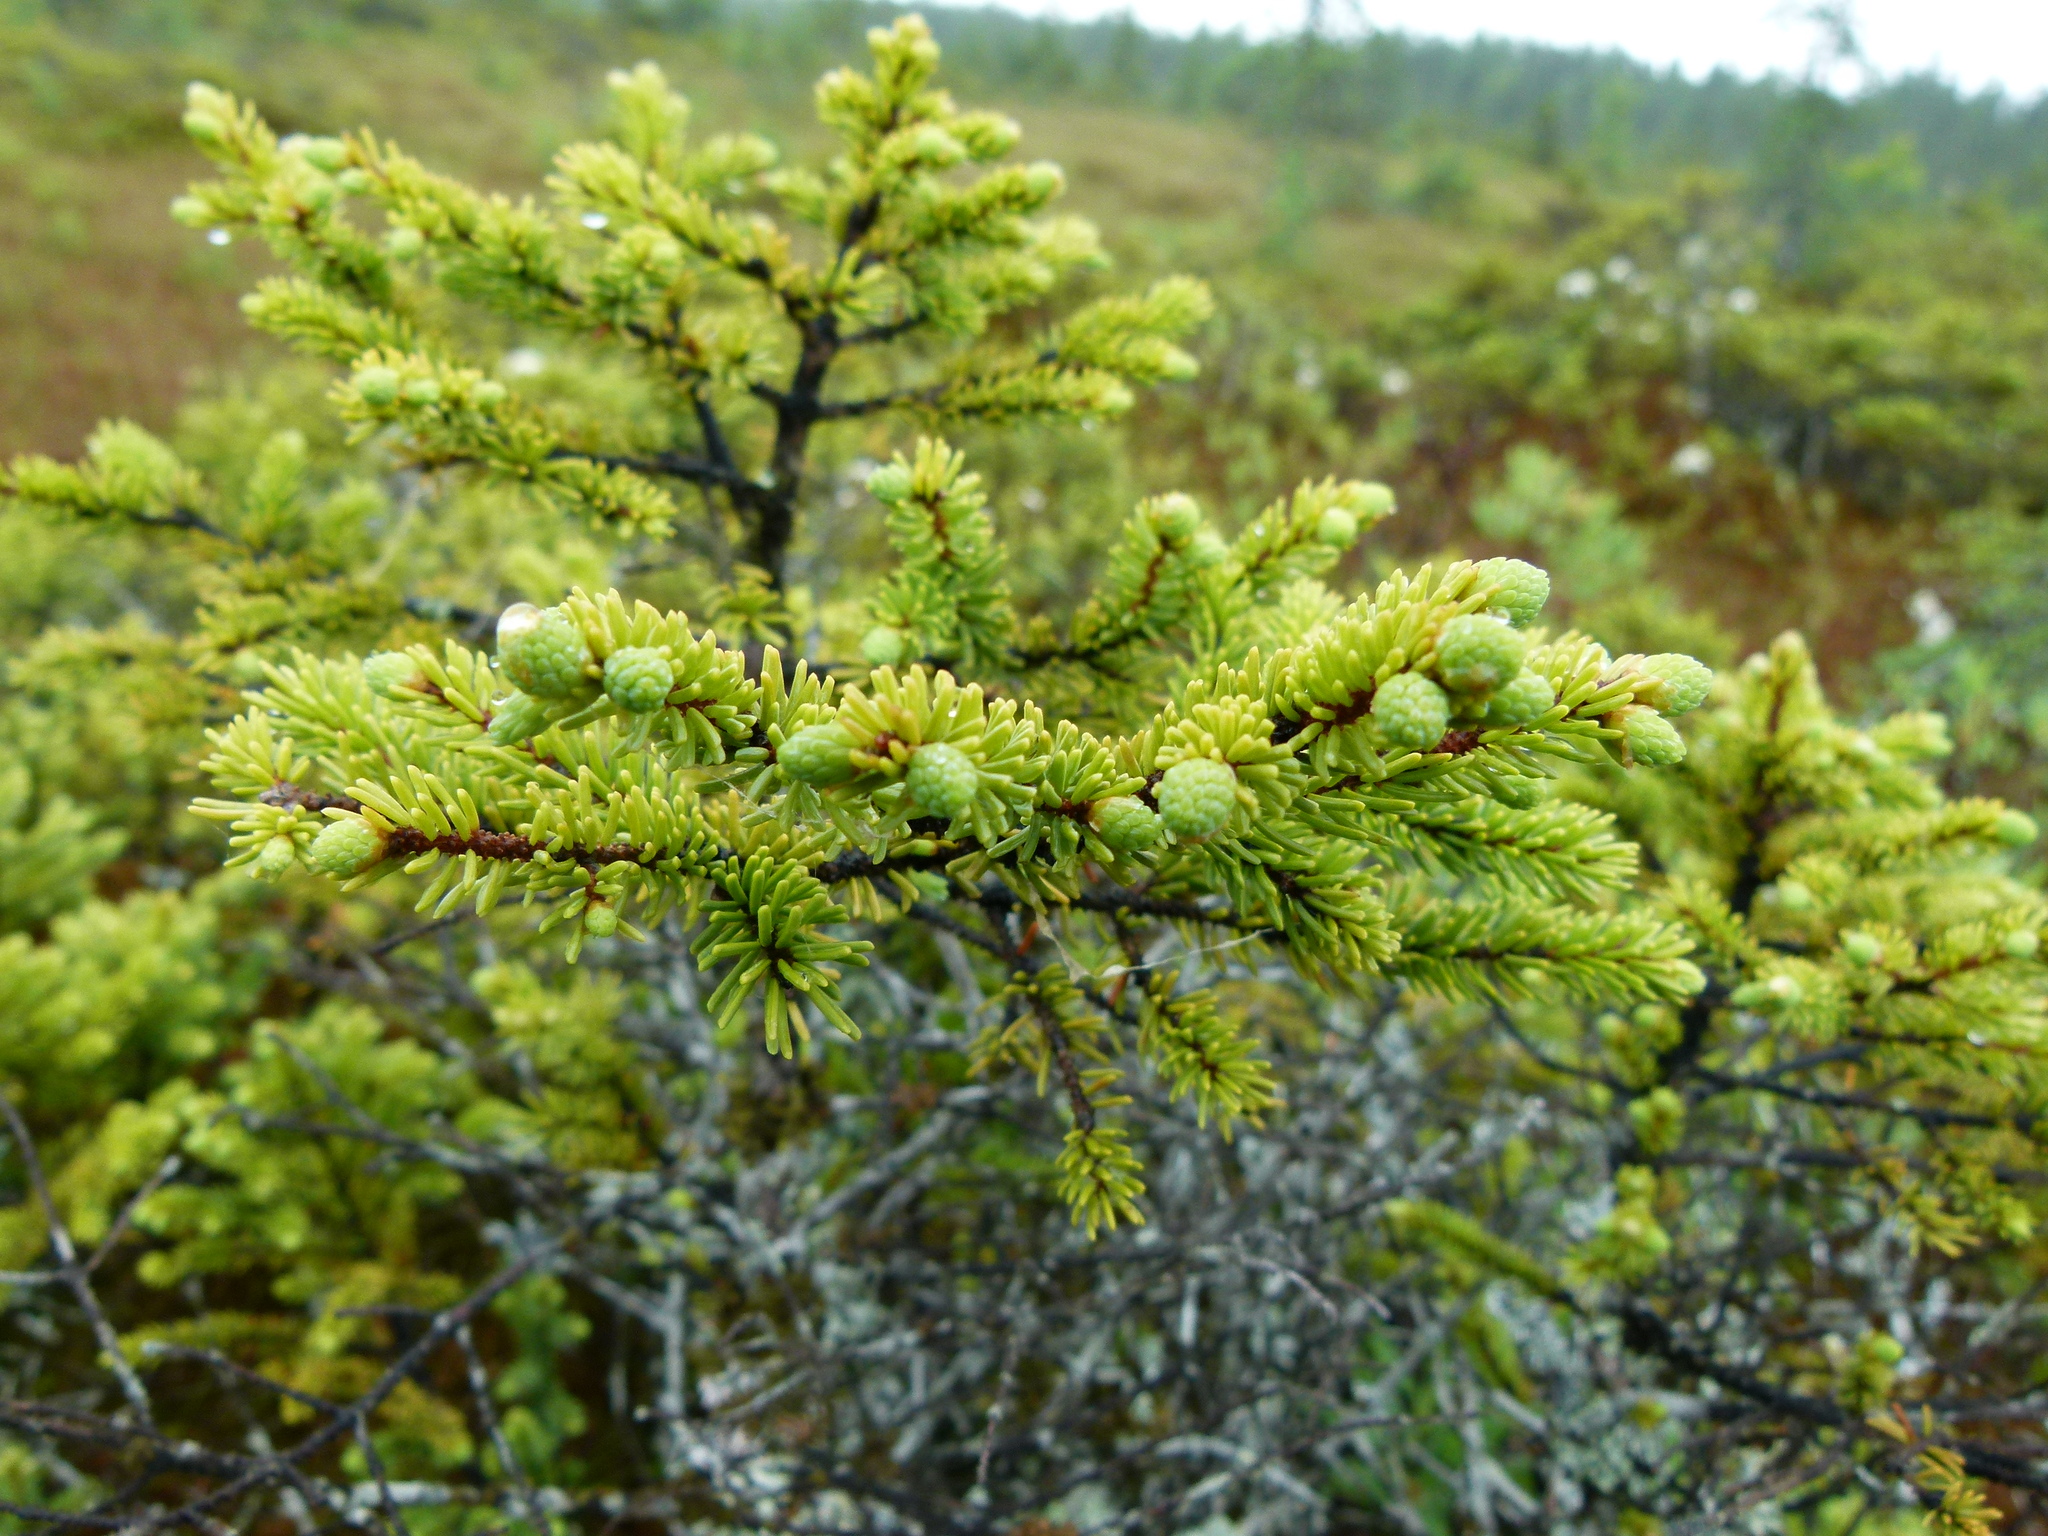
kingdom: Plantae
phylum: Tracheophyta
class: Pinopsida
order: Pinales
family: Pinaceae
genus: Picea
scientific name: Picea mariana
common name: Black spruce
